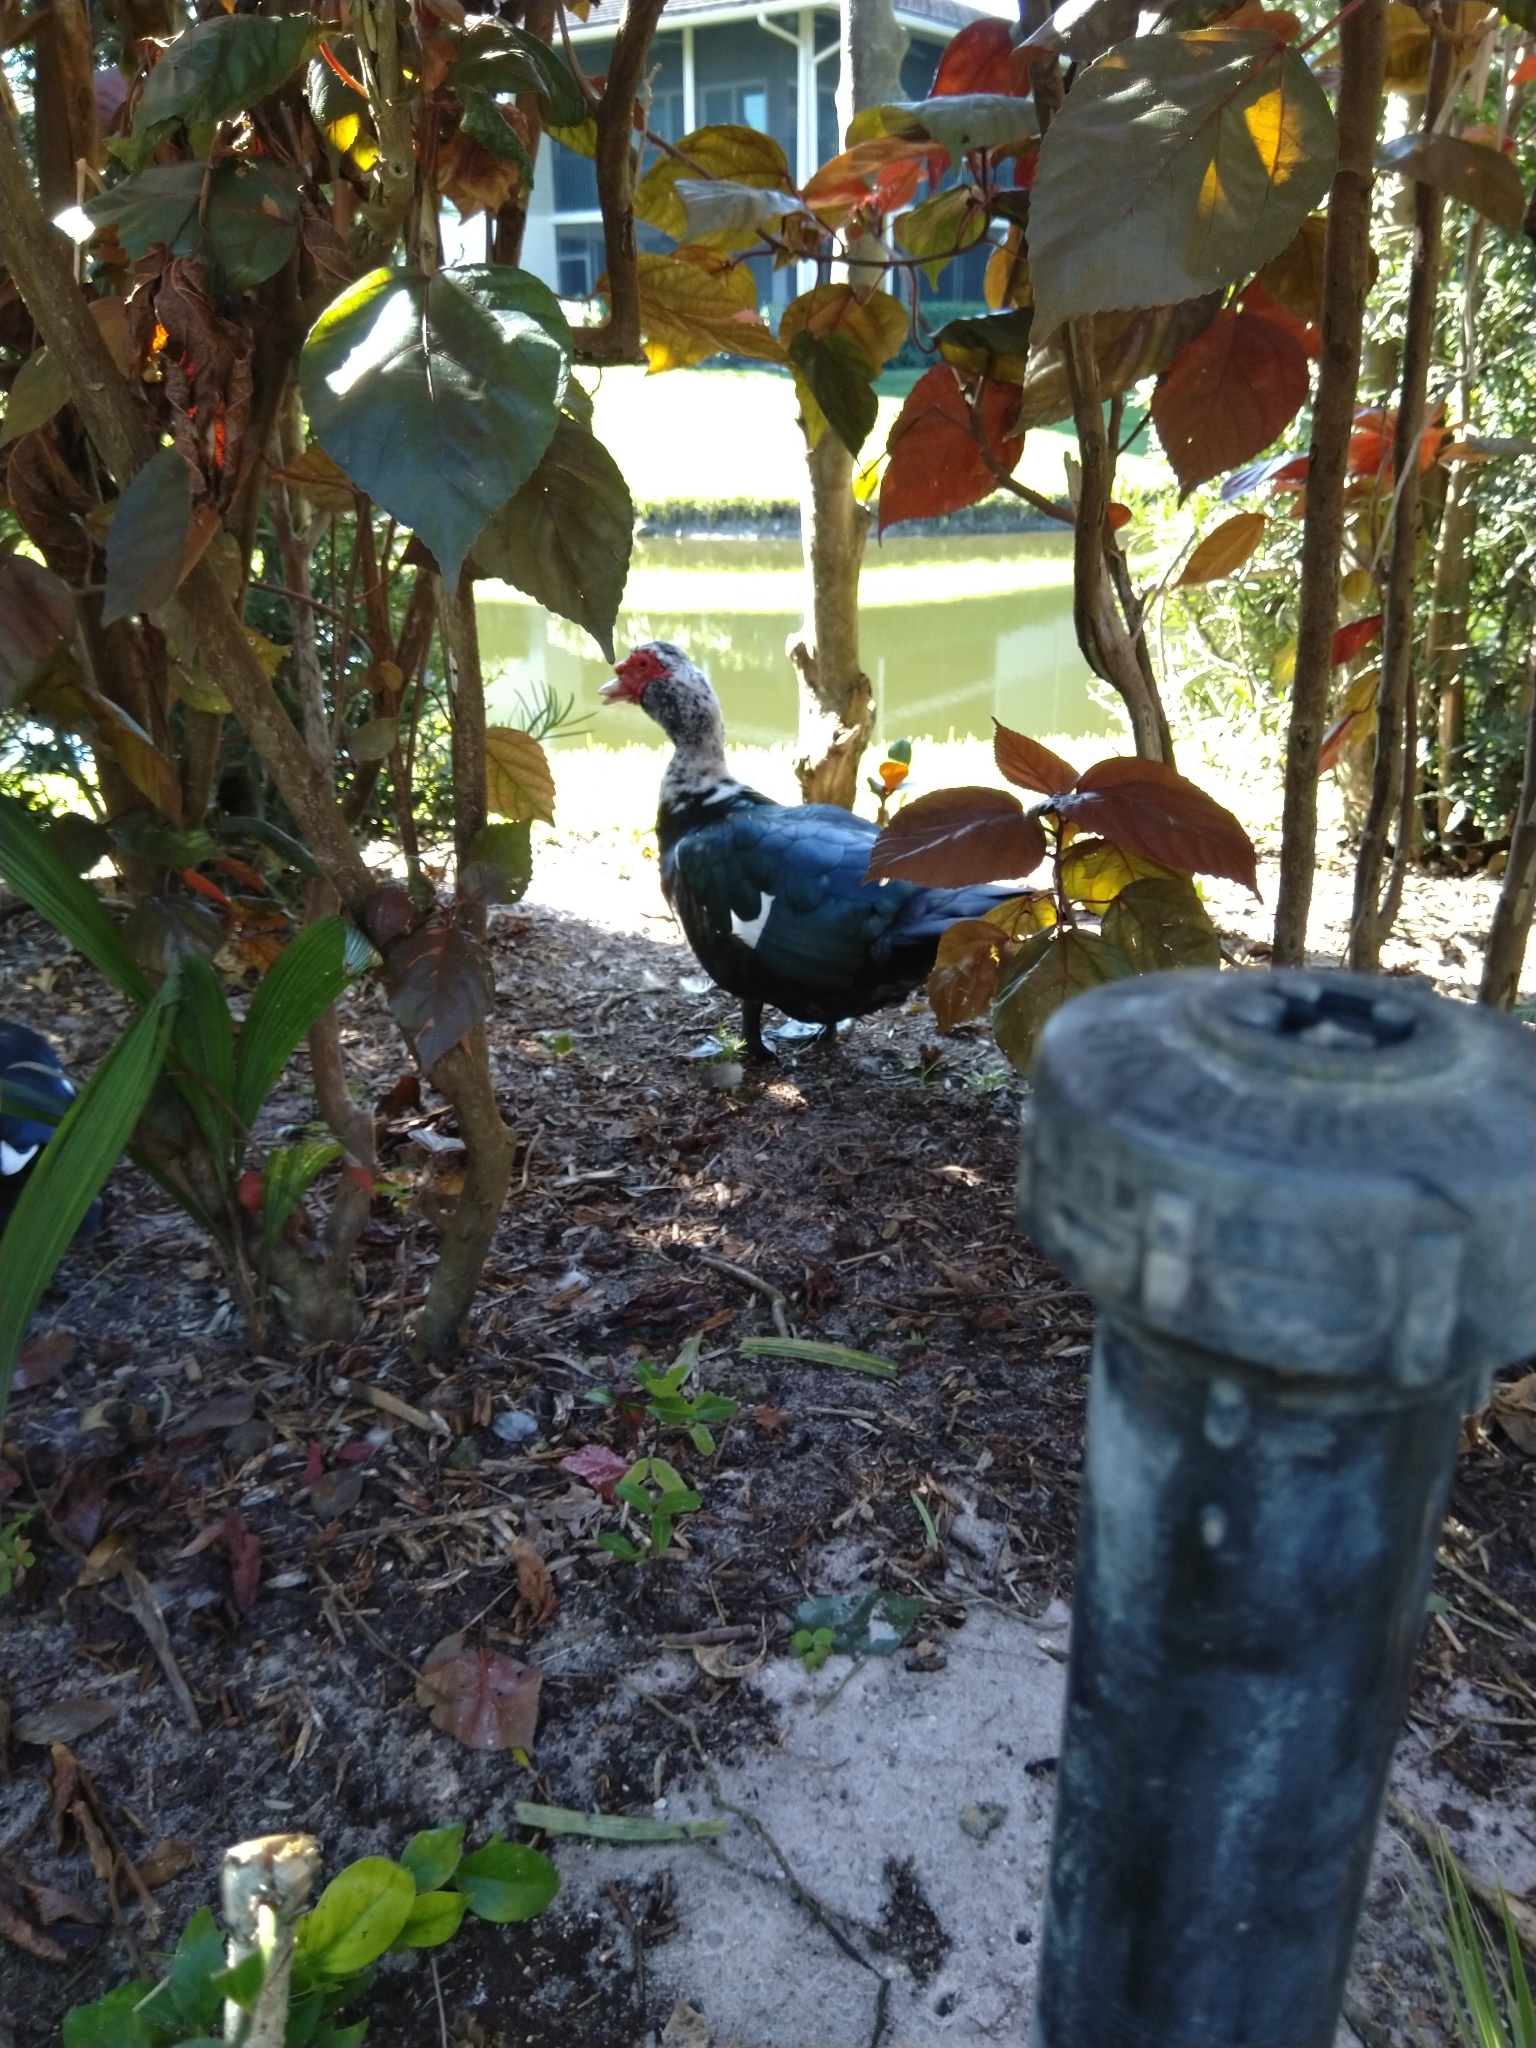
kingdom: Animalia
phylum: Chordata
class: Aves
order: Anseriformes
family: Anatidae
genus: Cairina
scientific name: Cairina moschata
